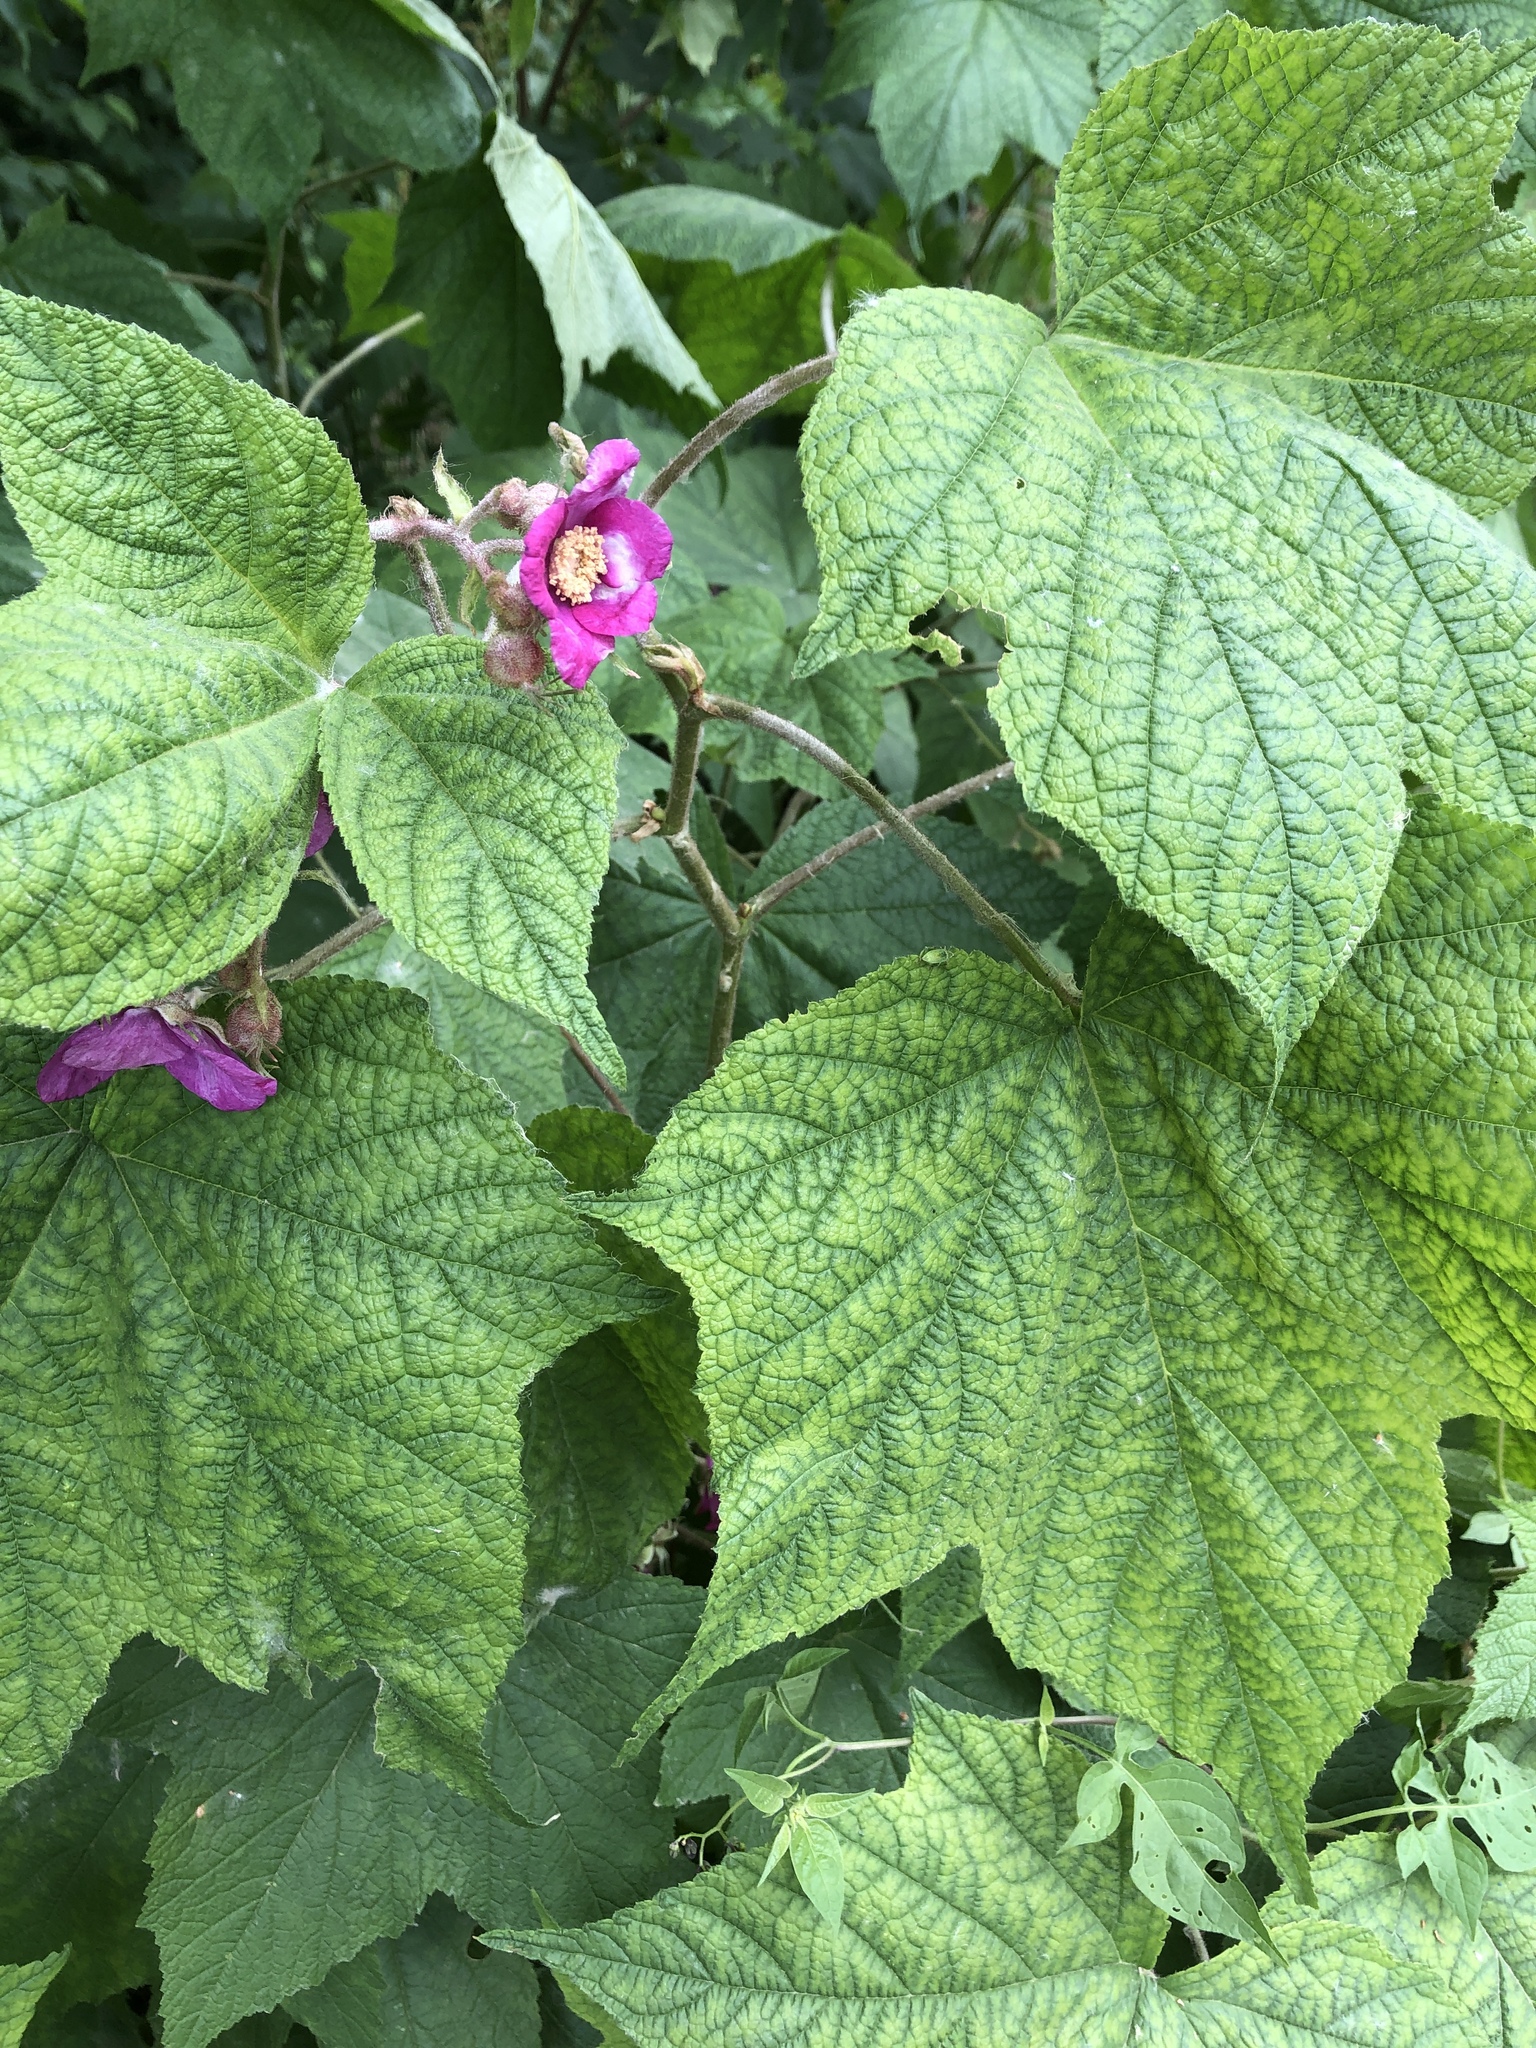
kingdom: Plantae
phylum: Tracheophyta
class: Magnoliopsida
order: Rosales
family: Rosaceae
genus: Rubus
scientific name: Rubus odoratus
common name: Purple-flowered raspberry
